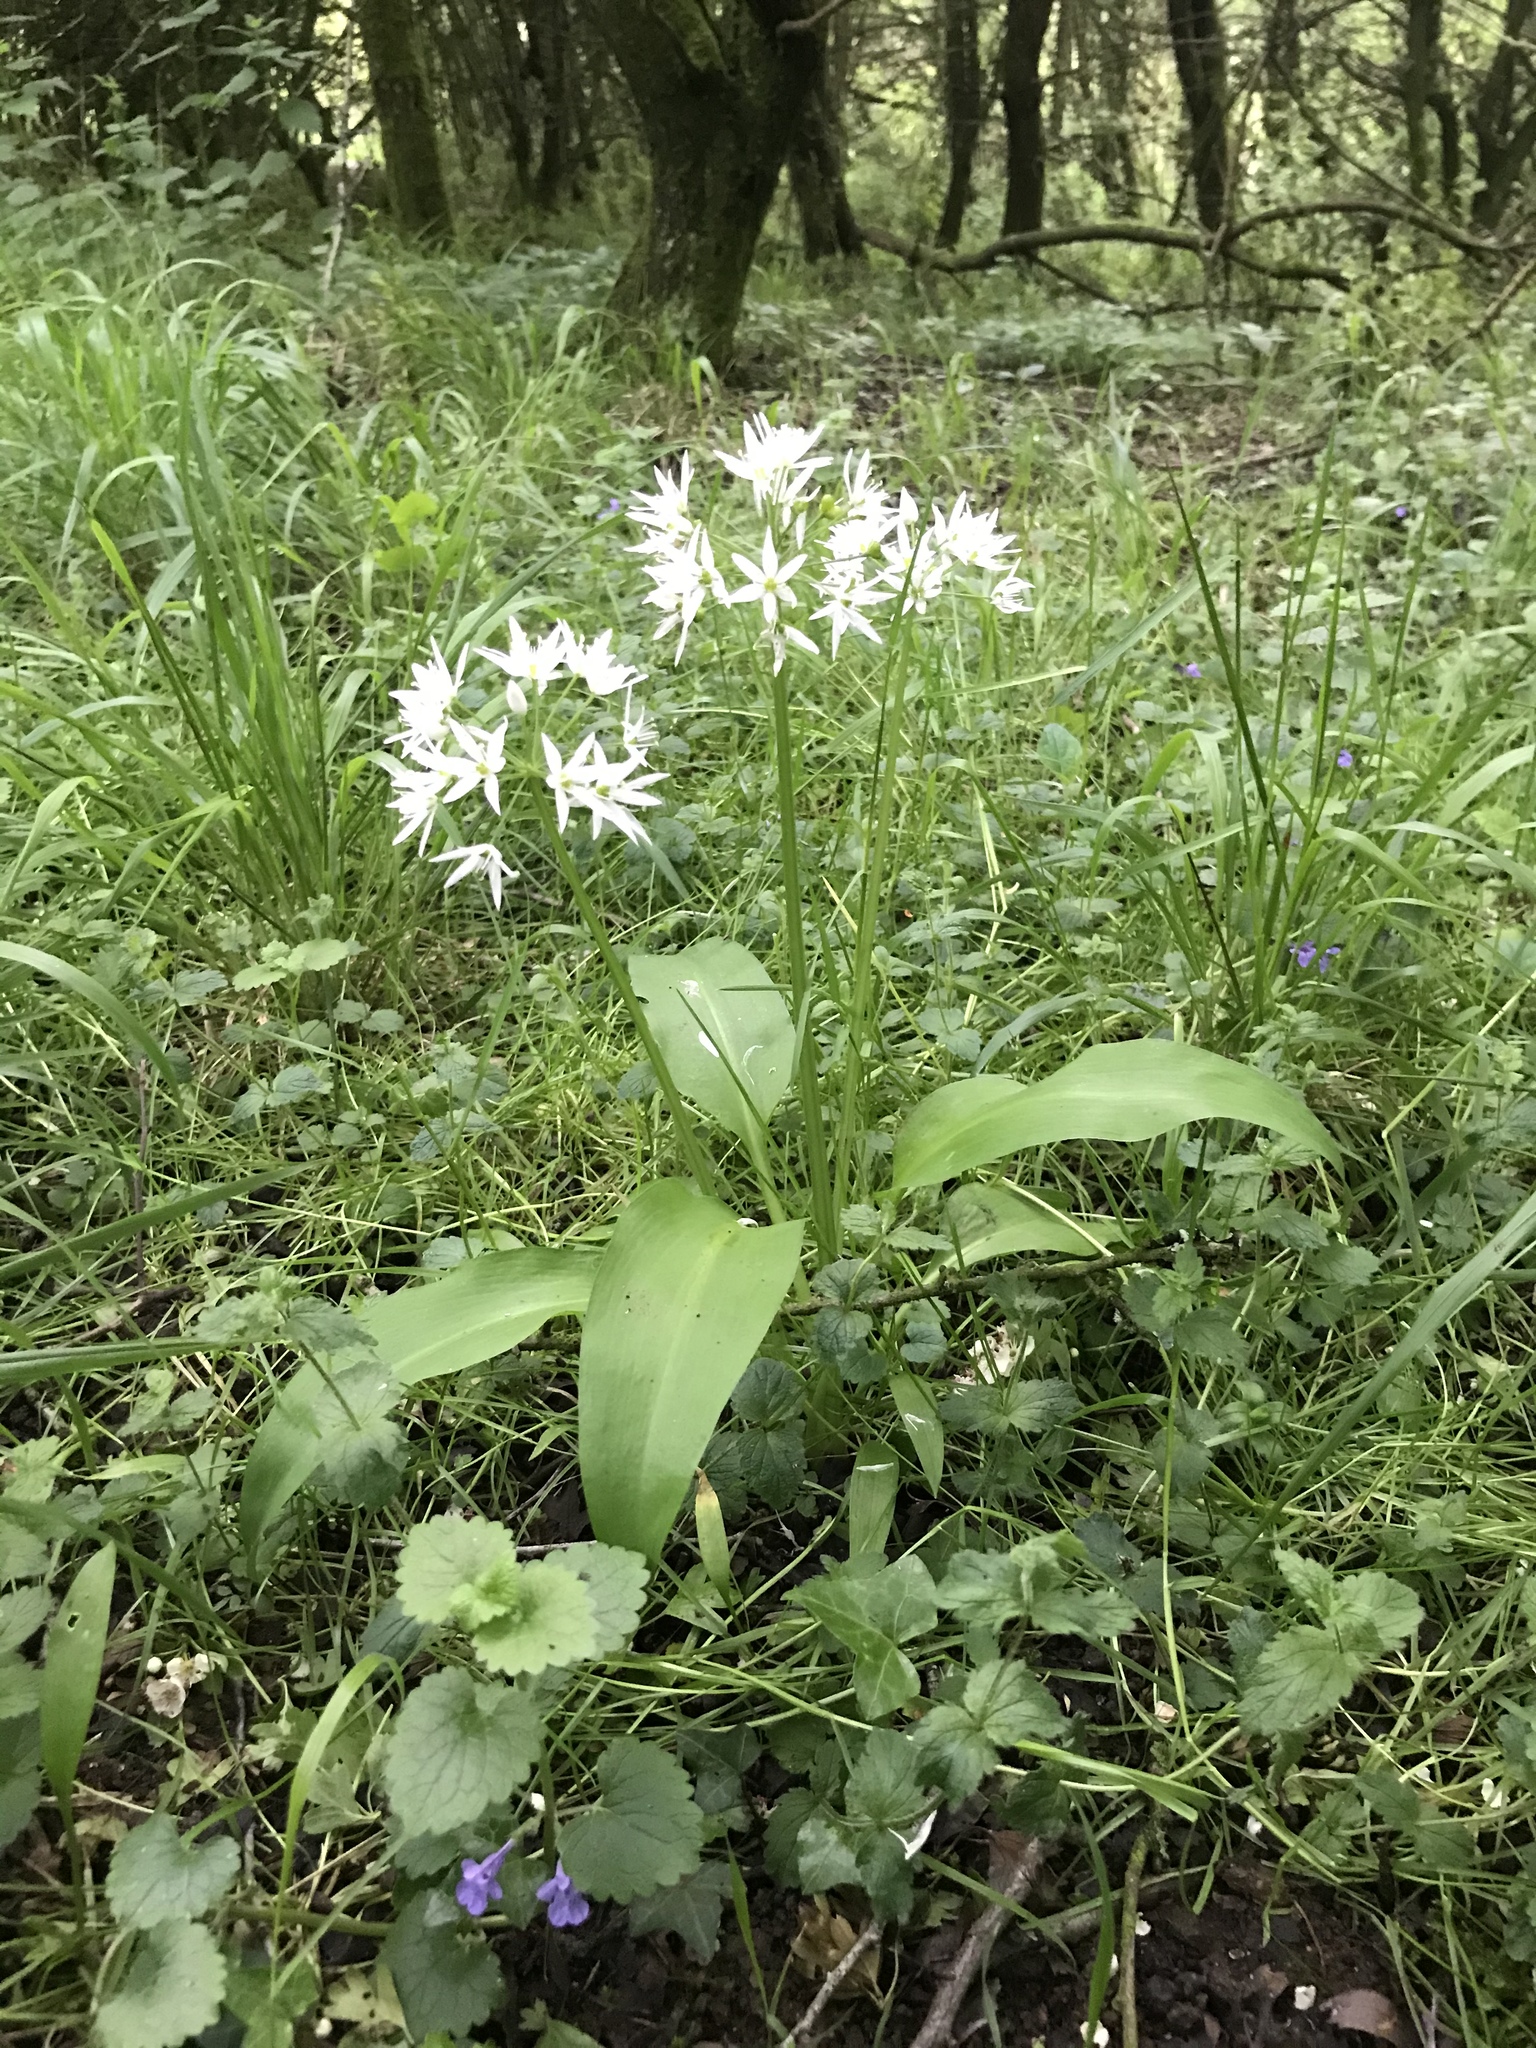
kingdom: Plantae
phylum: Tracheophyta
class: Liliopsida
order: Asparagales
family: Amaryllidaceae
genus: Allium
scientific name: Allium ursinum
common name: Ramsons
